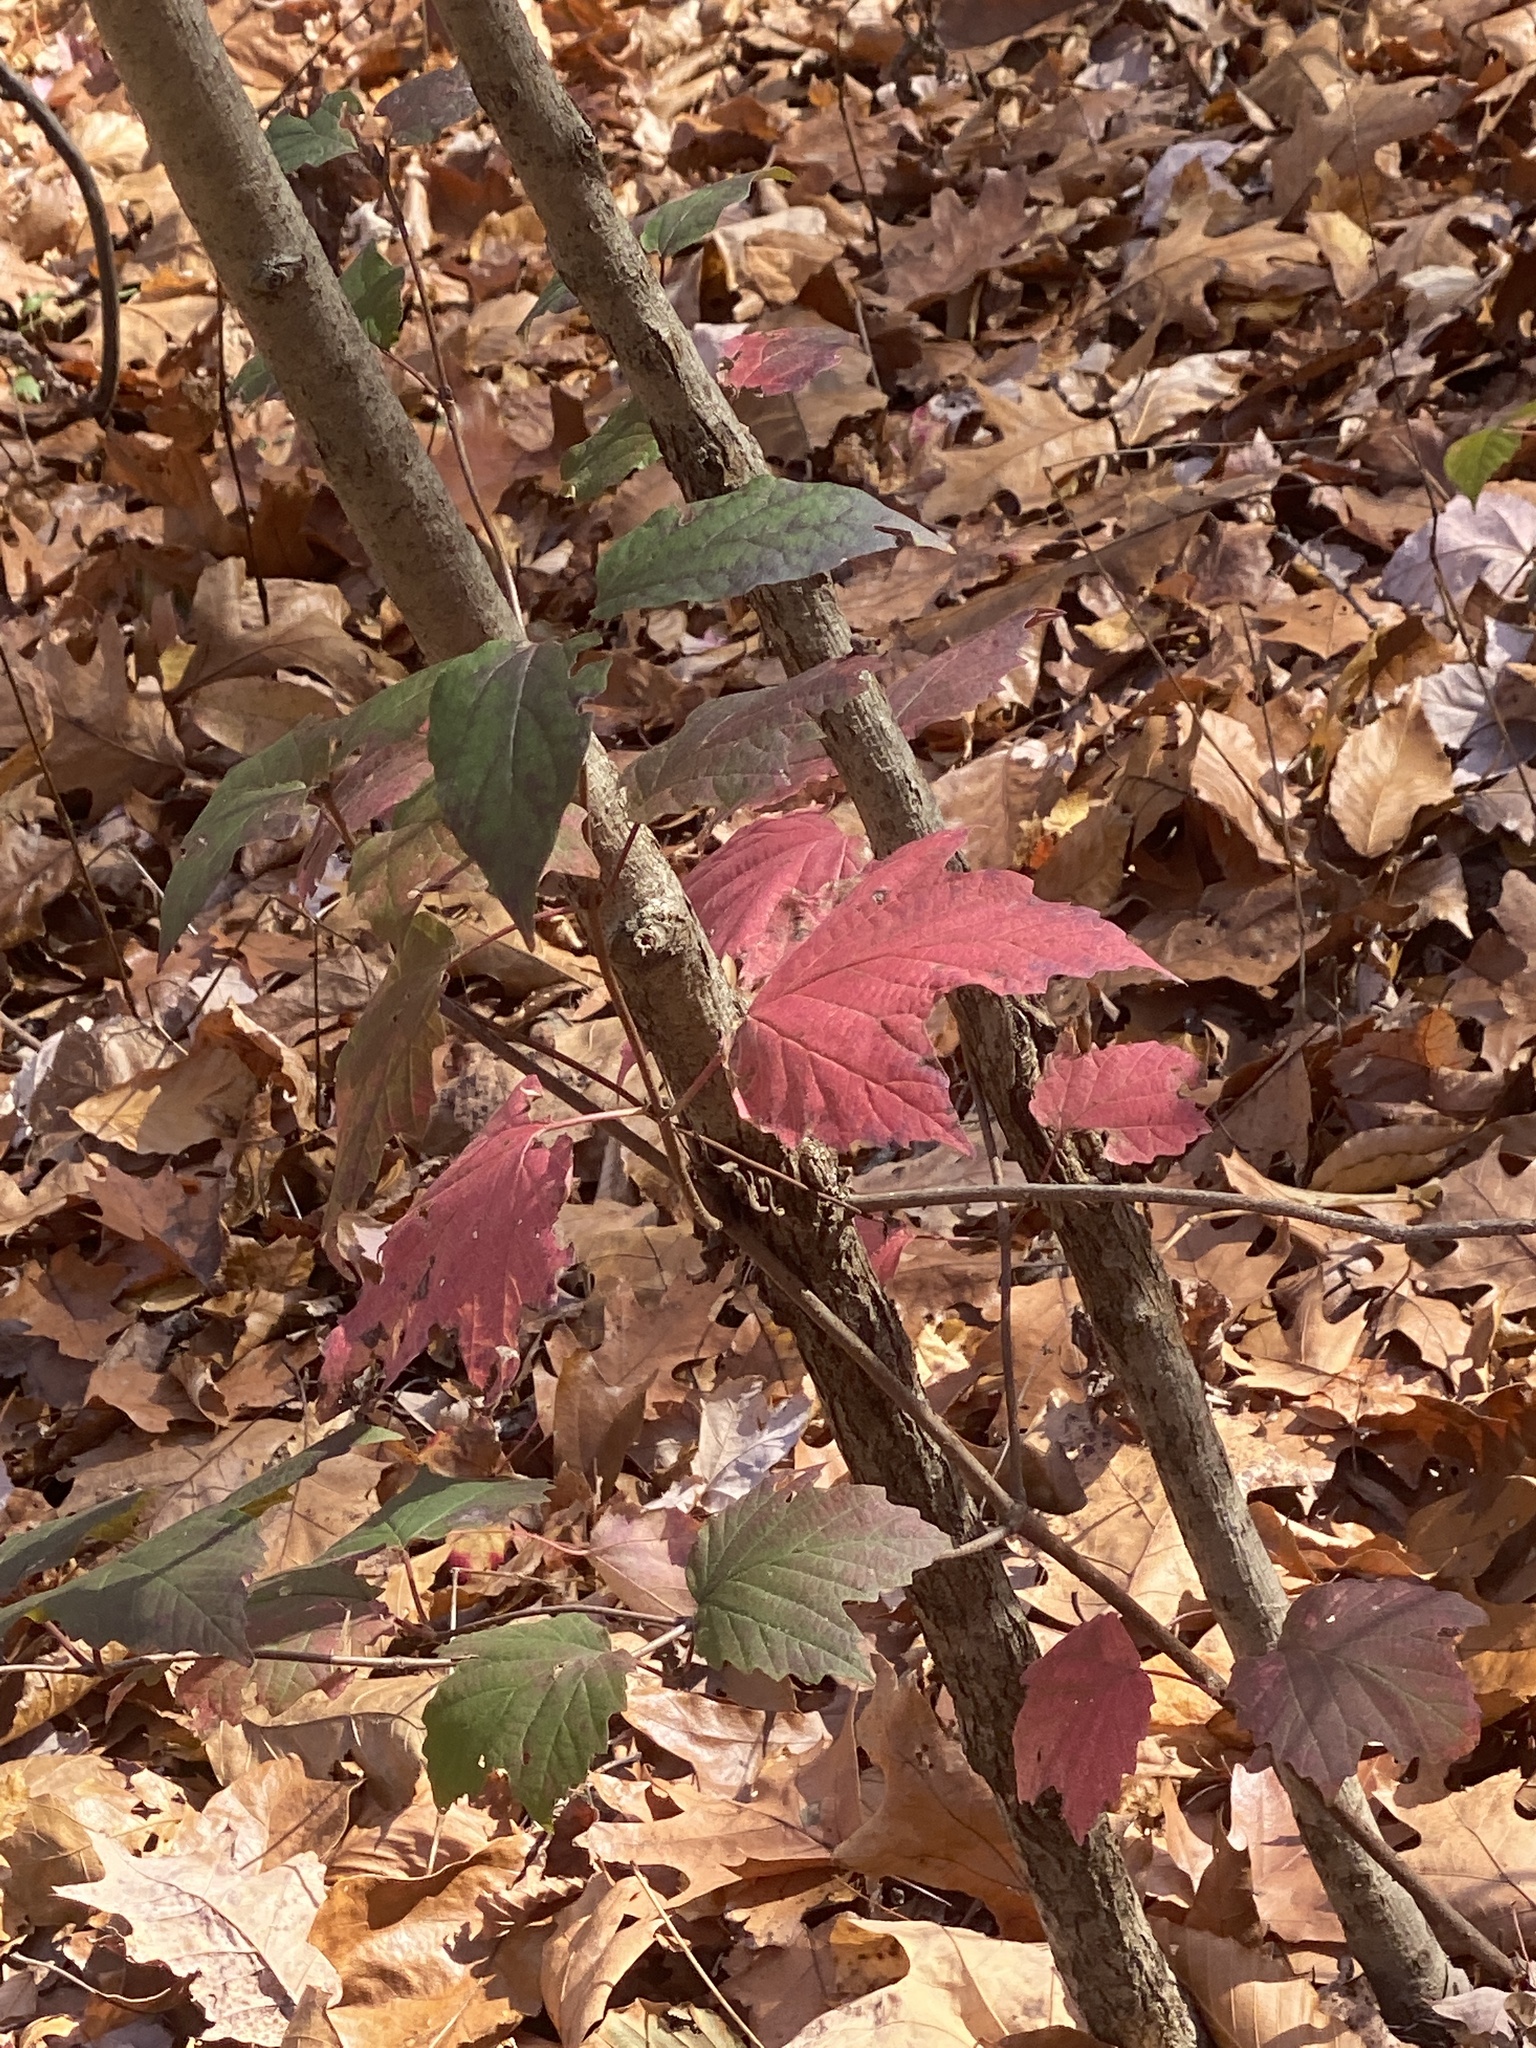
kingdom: Plantae
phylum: Tracheophyta
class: Magnoliopsida
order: Dipsacales
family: Viburnaceae
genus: Viburnum
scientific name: Viburnum acerifolium
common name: Dockmackie
